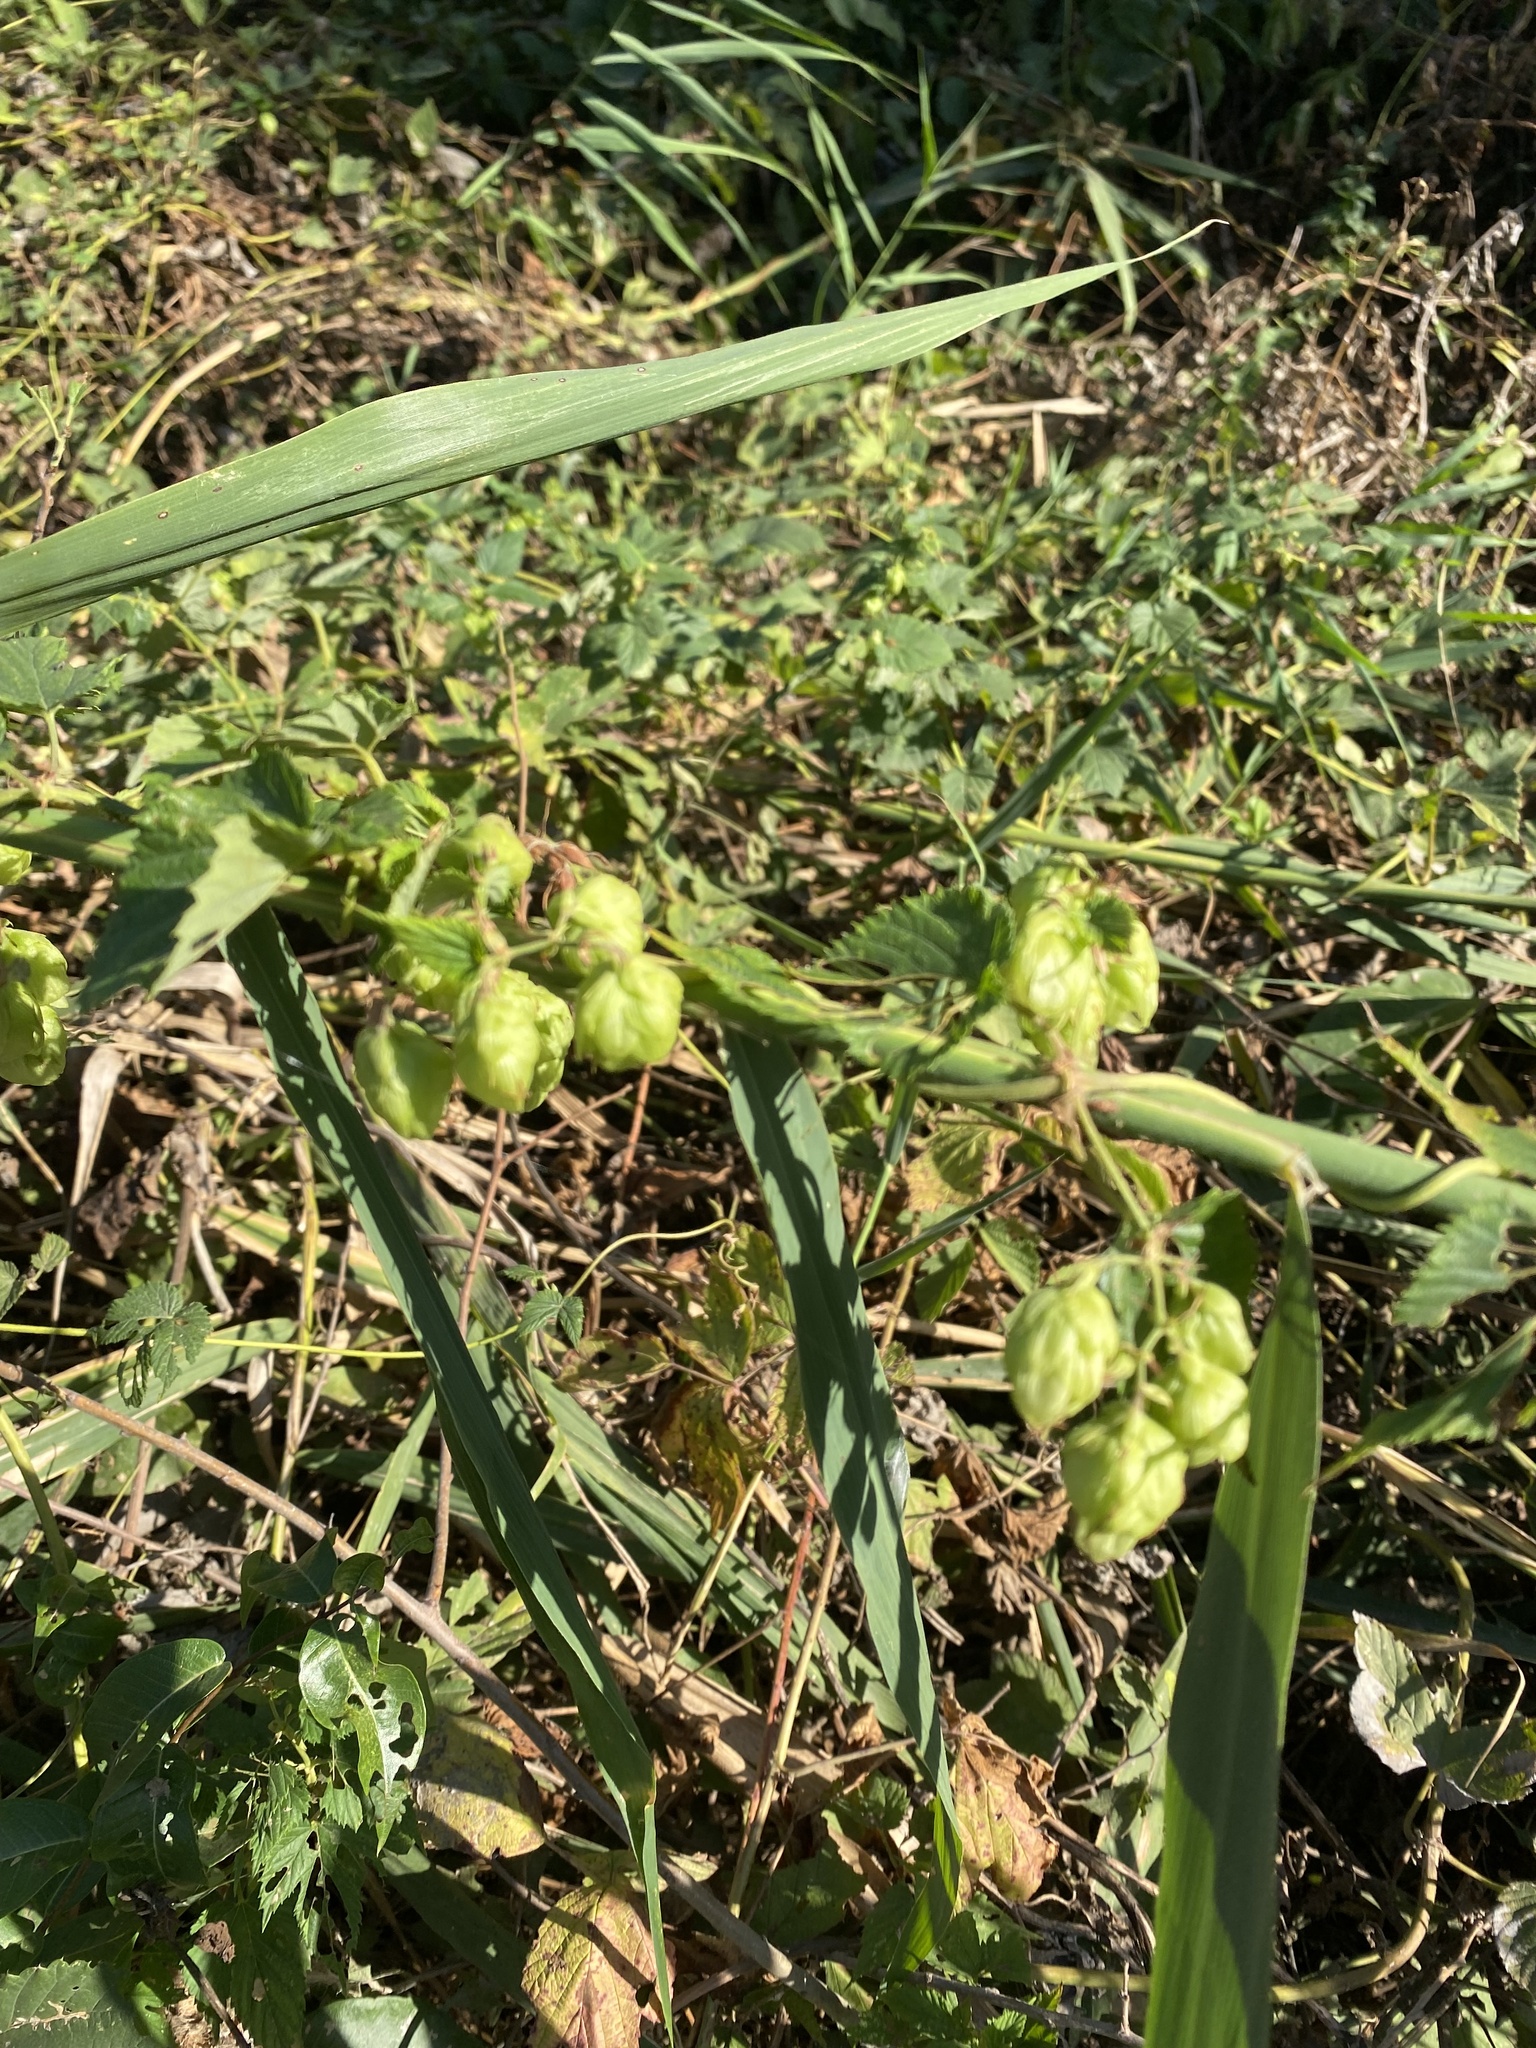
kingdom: Plantae
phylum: Tracheophyta
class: Magnoliopsida
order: Rosales
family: Cannabaceae
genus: Humulus
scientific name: Humulus lupulus
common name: Hop
